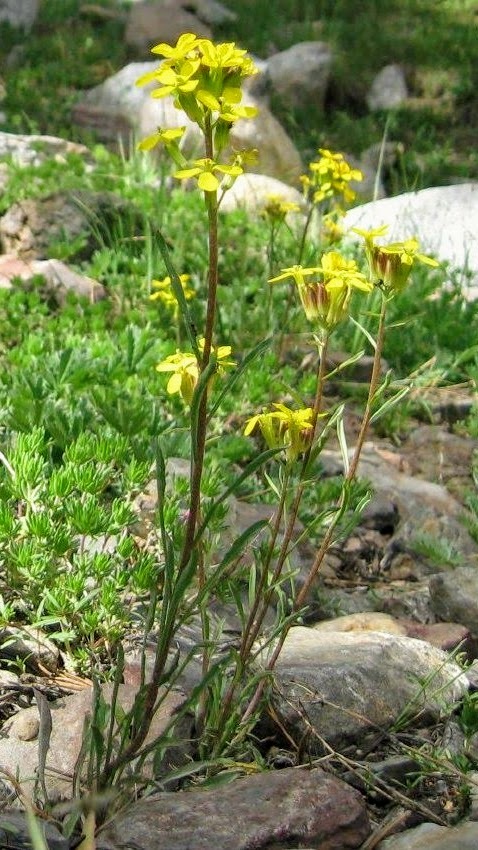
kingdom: Plantae
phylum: Tracheophyta
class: Magnoliopsida
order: Brassicales
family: Brassicaceae
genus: Erysimum
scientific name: Erysimum capitatum
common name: Western wallflower
